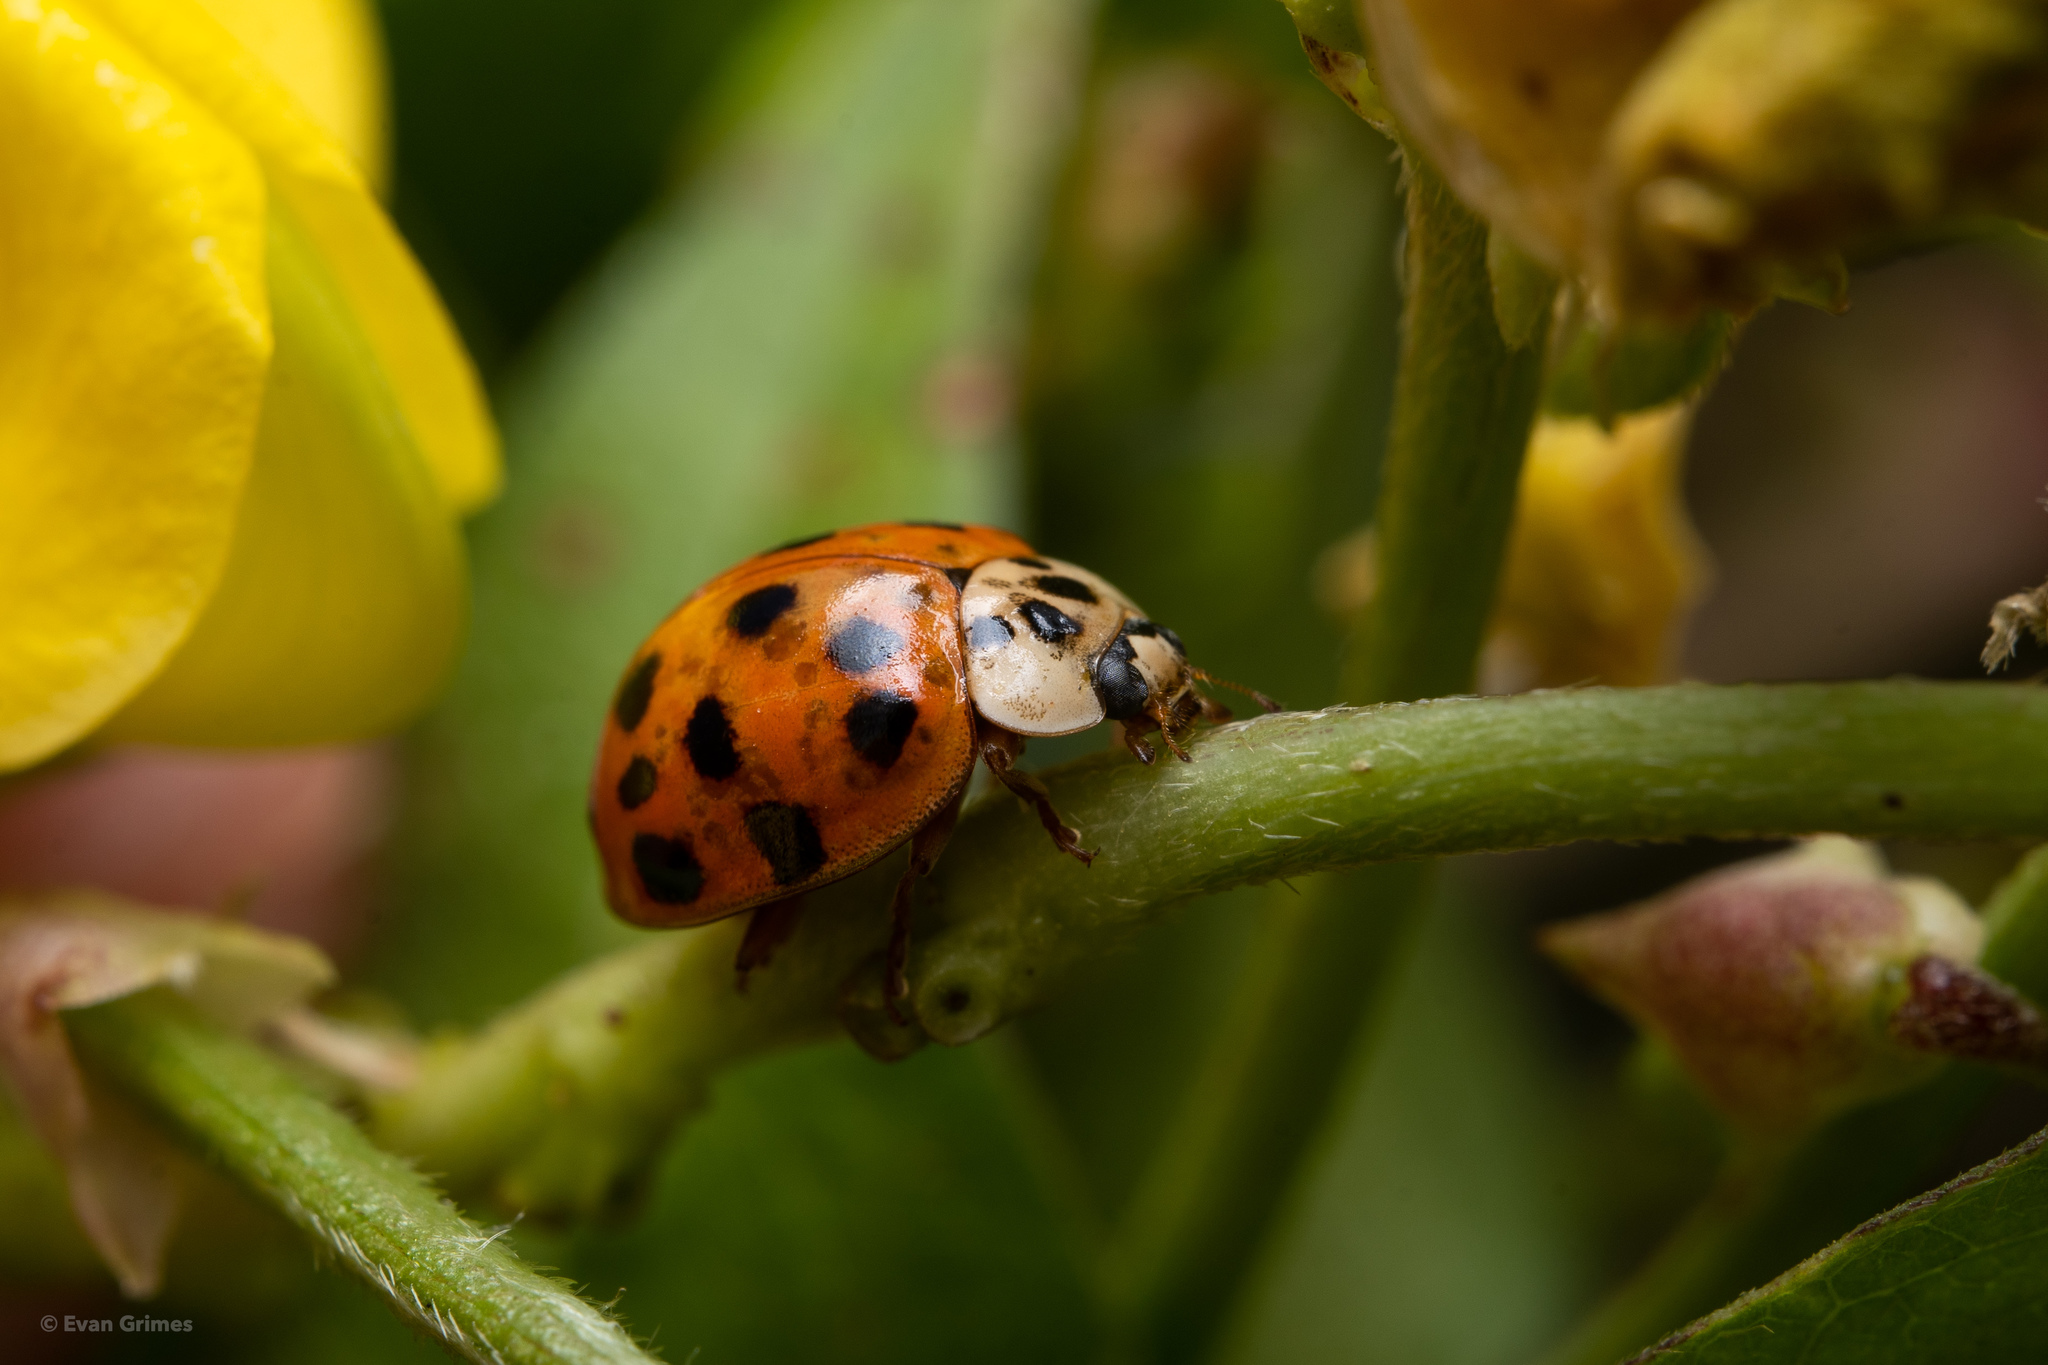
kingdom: Animalia
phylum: Arthropoda
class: Insecta
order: Coleoptera
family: Coccinellidae
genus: Harmonia
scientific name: Harmonia axyridis
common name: Harlequin ladybird
